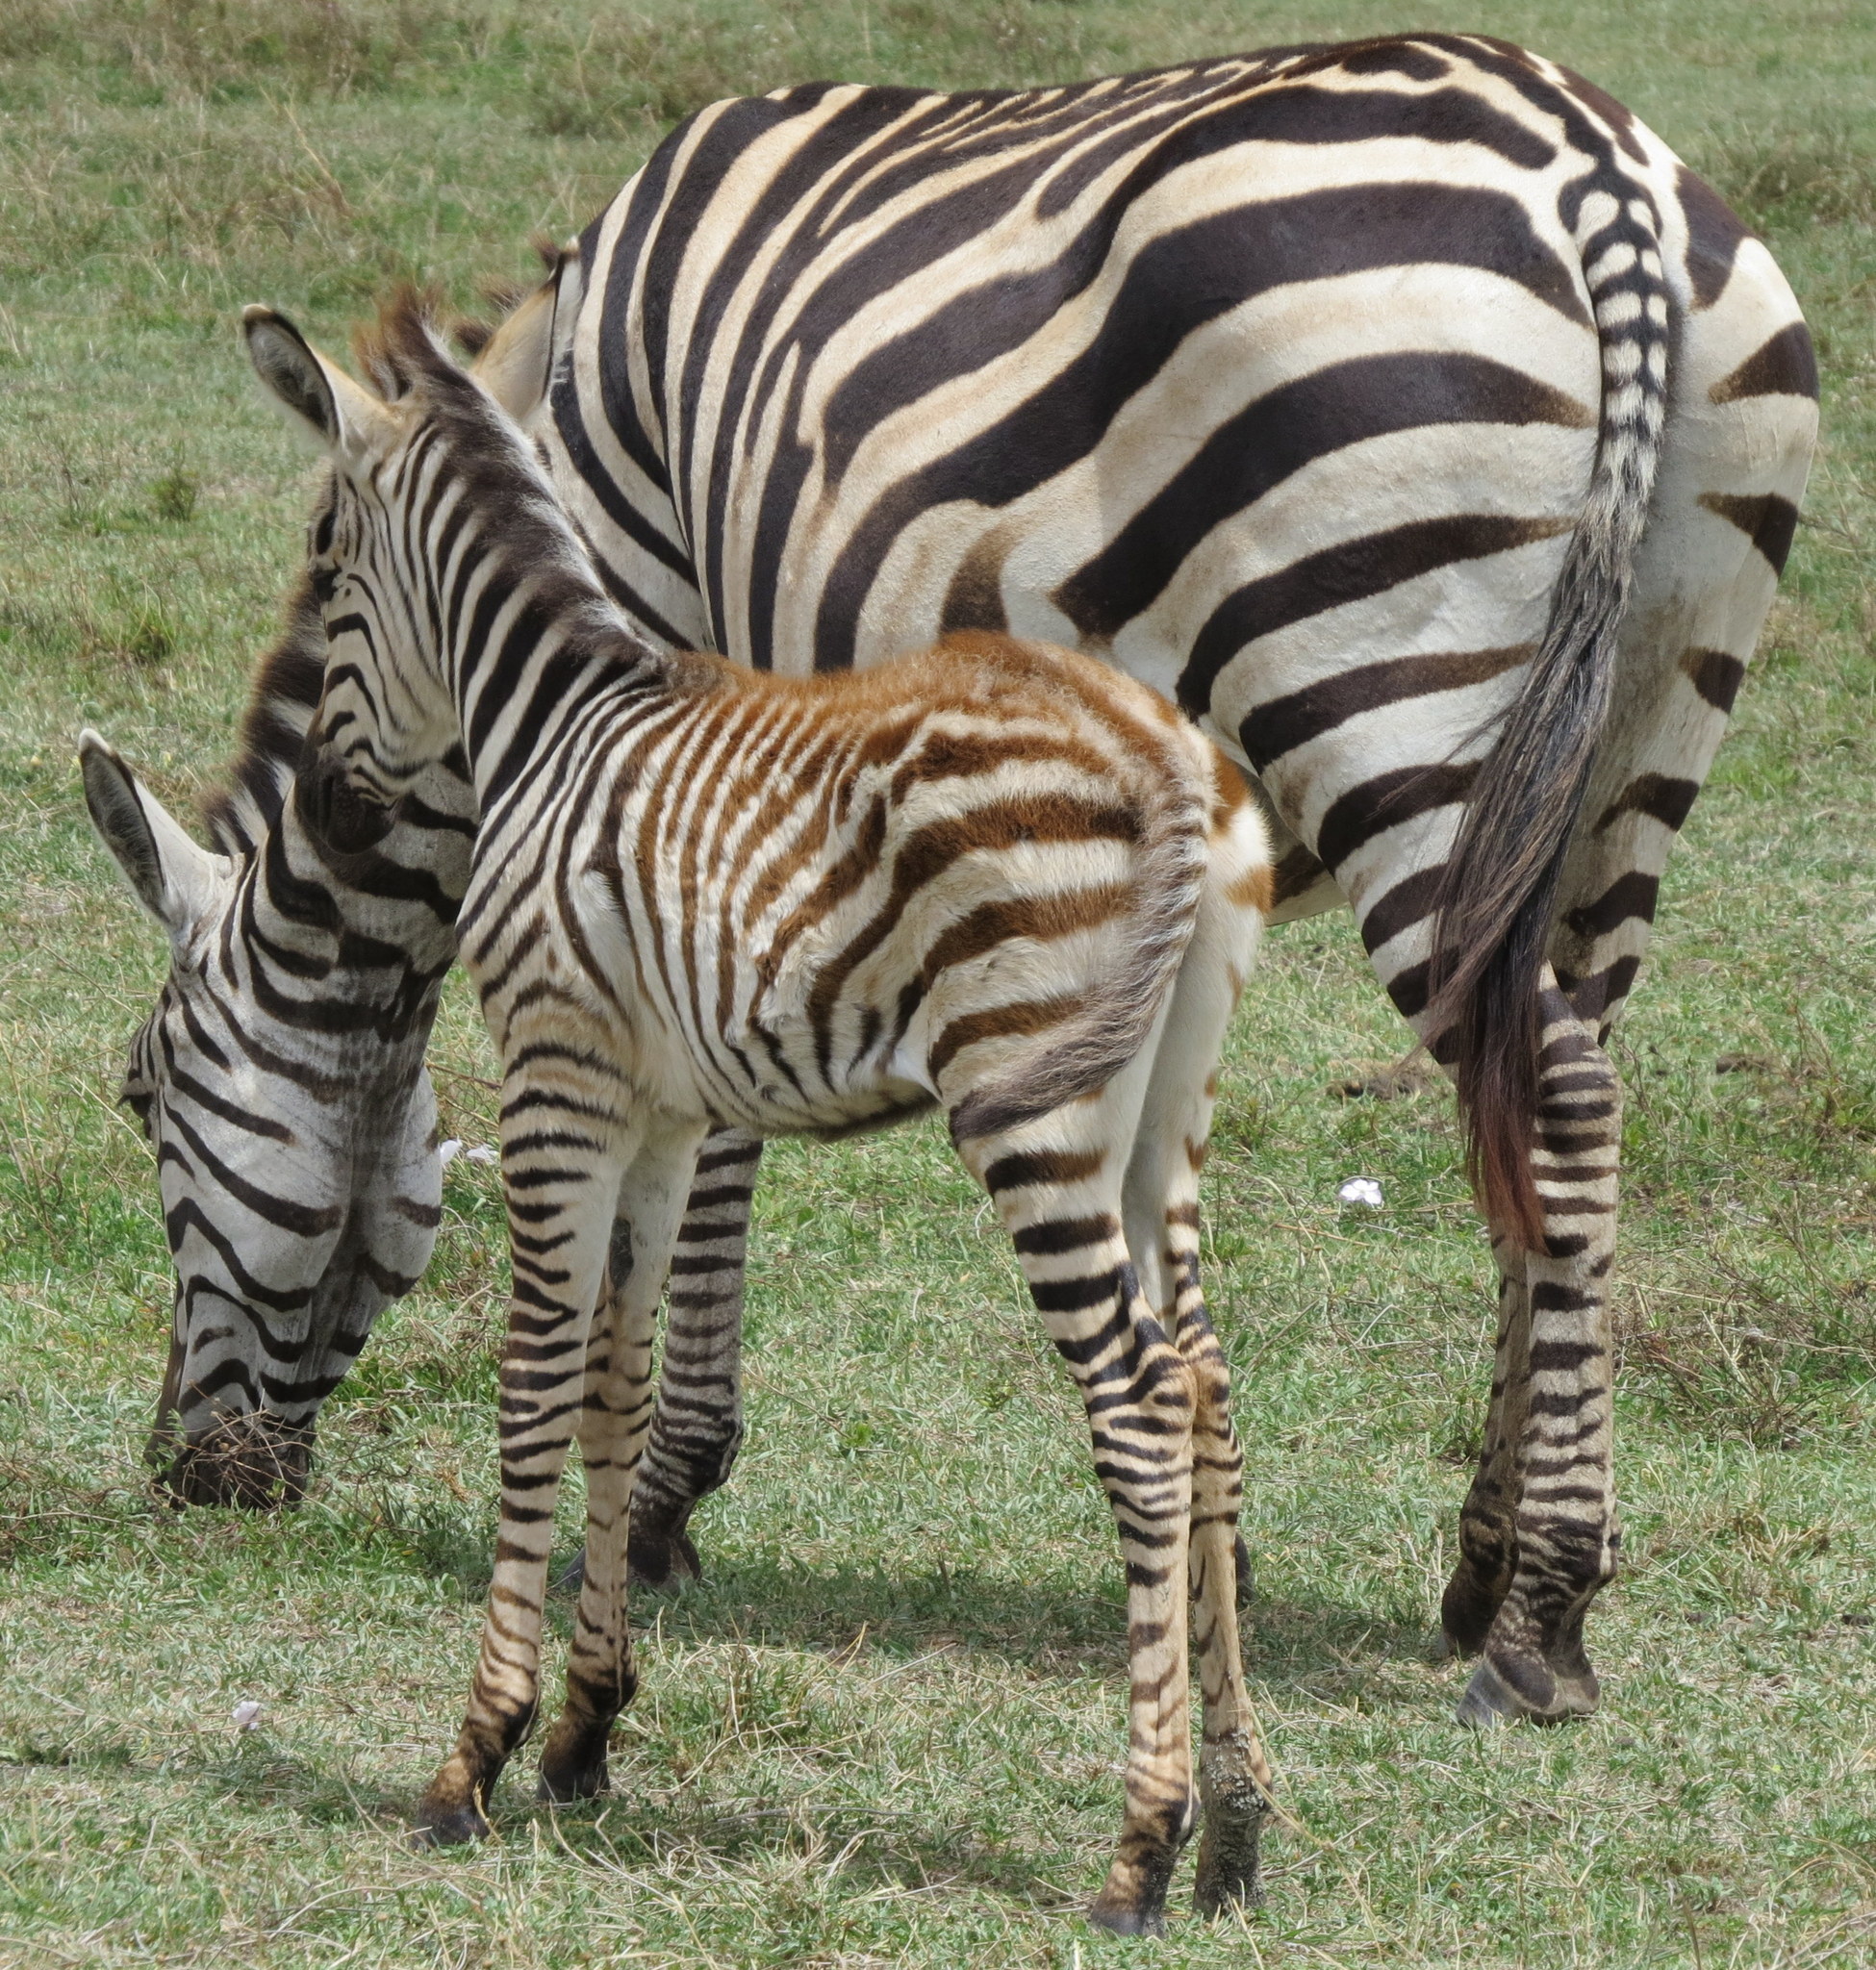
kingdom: Animalia
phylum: Chordata
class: Mammalia
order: Perissodactyla
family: Equidae
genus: Equus
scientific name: Equus quagga
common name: Plains zebra
